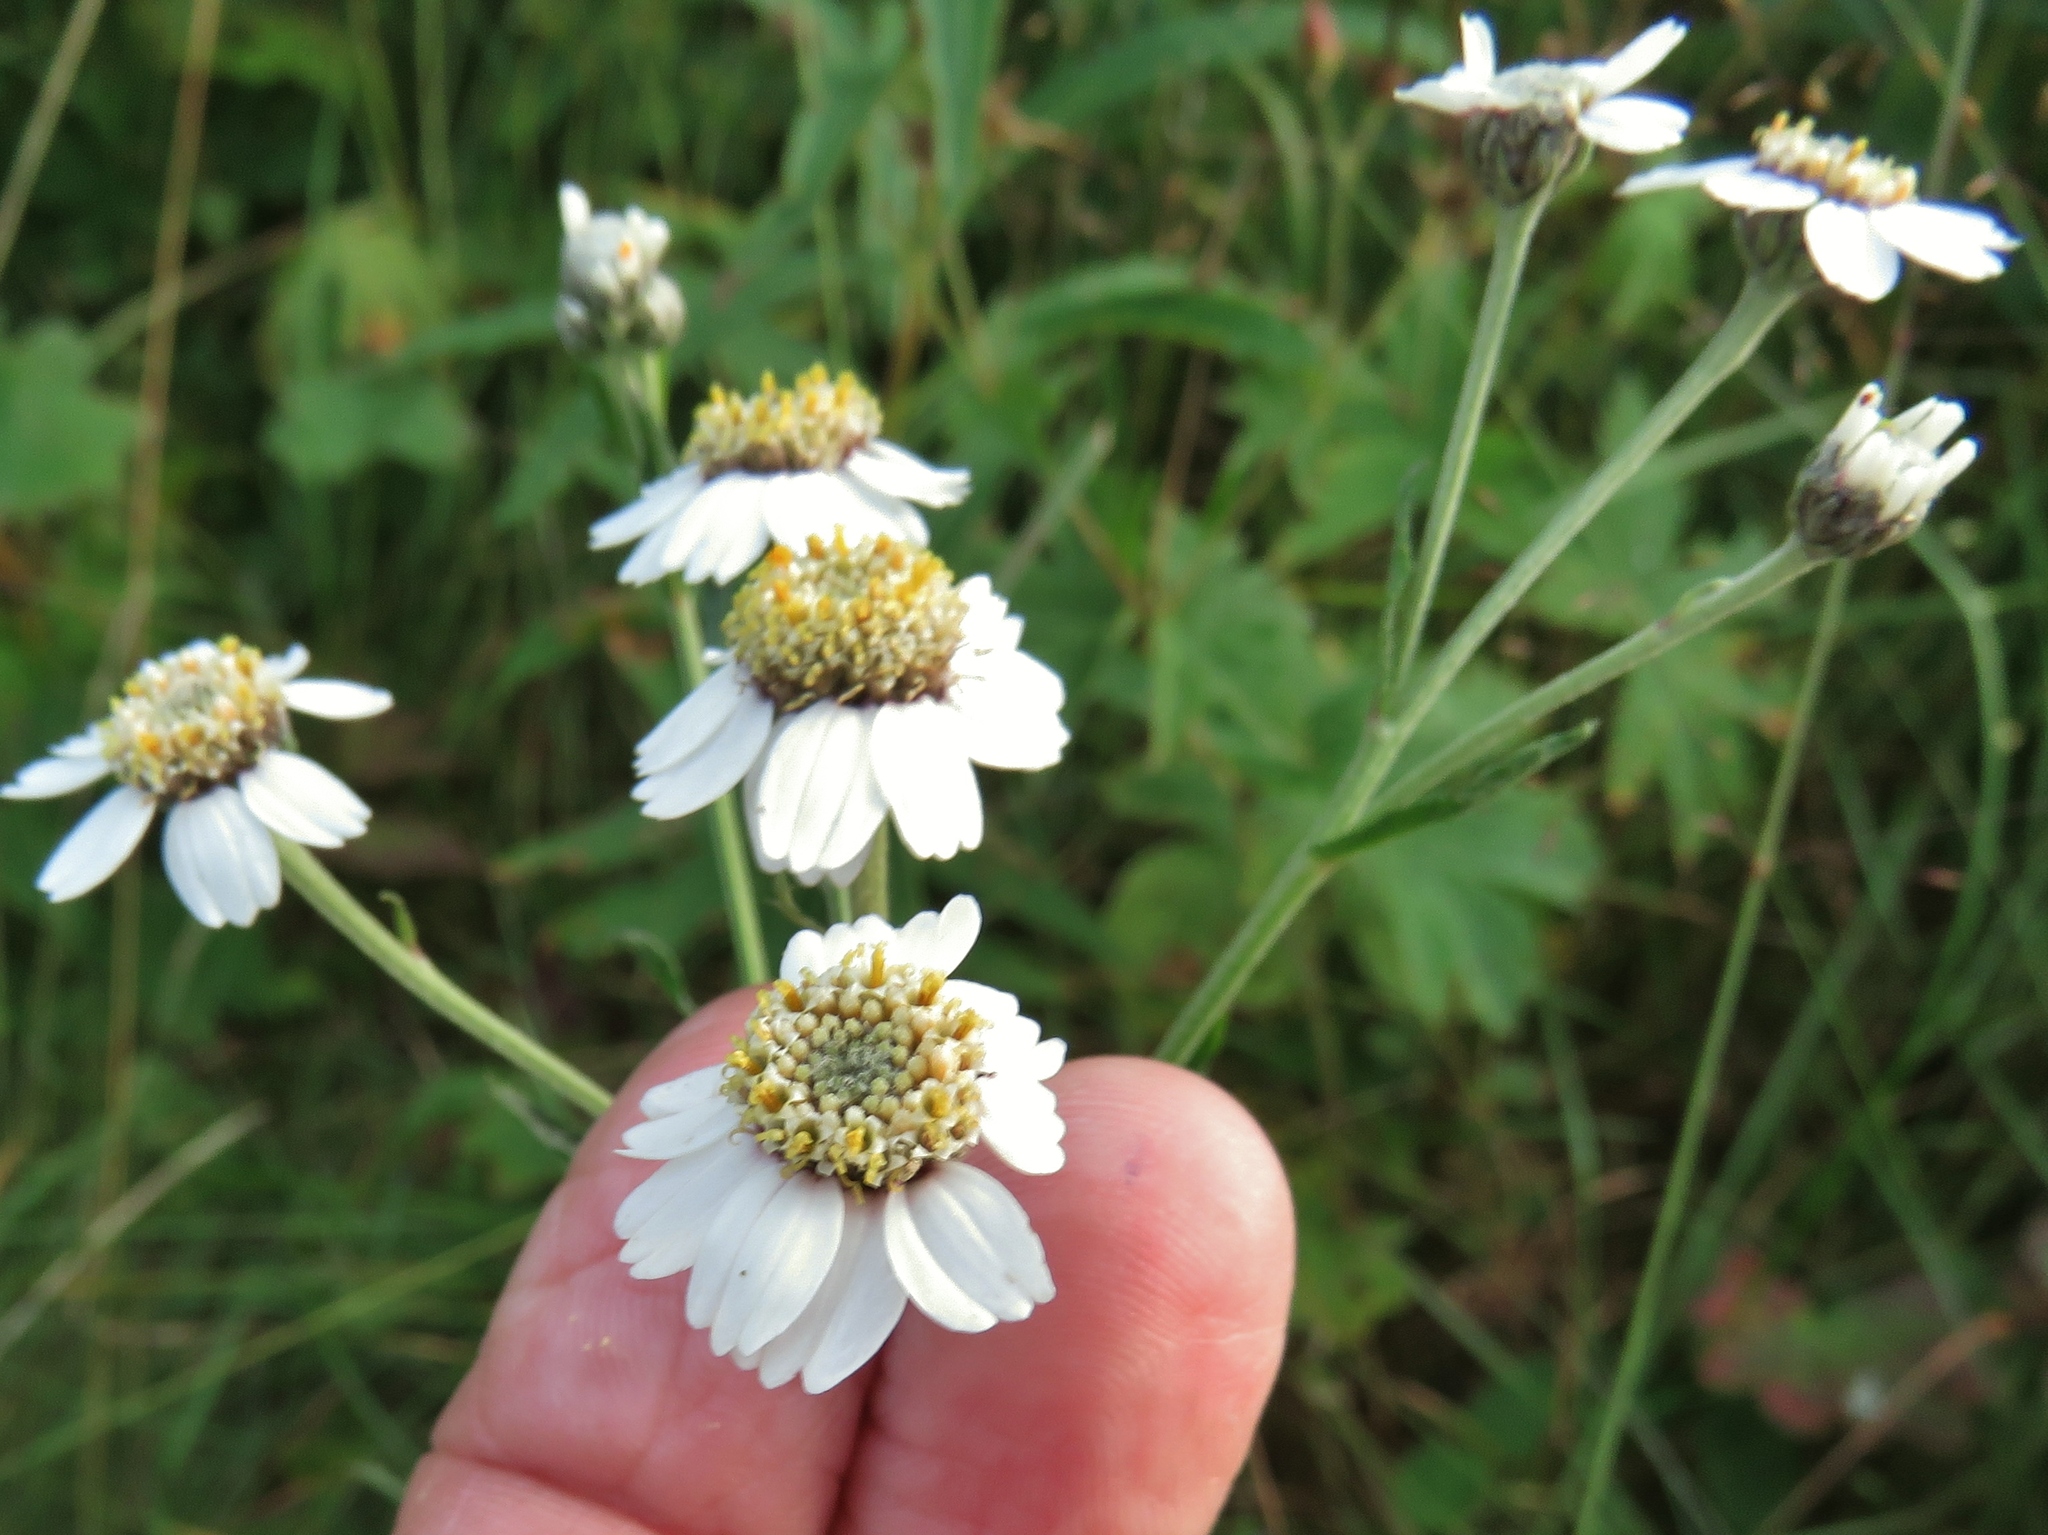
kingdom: Plantae
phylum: Tracheophyta
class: Magnoliopsida
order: Asterales
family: Asteraceae
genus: Achillea
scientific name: Achillea ptarmica
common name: Sneezeweed
